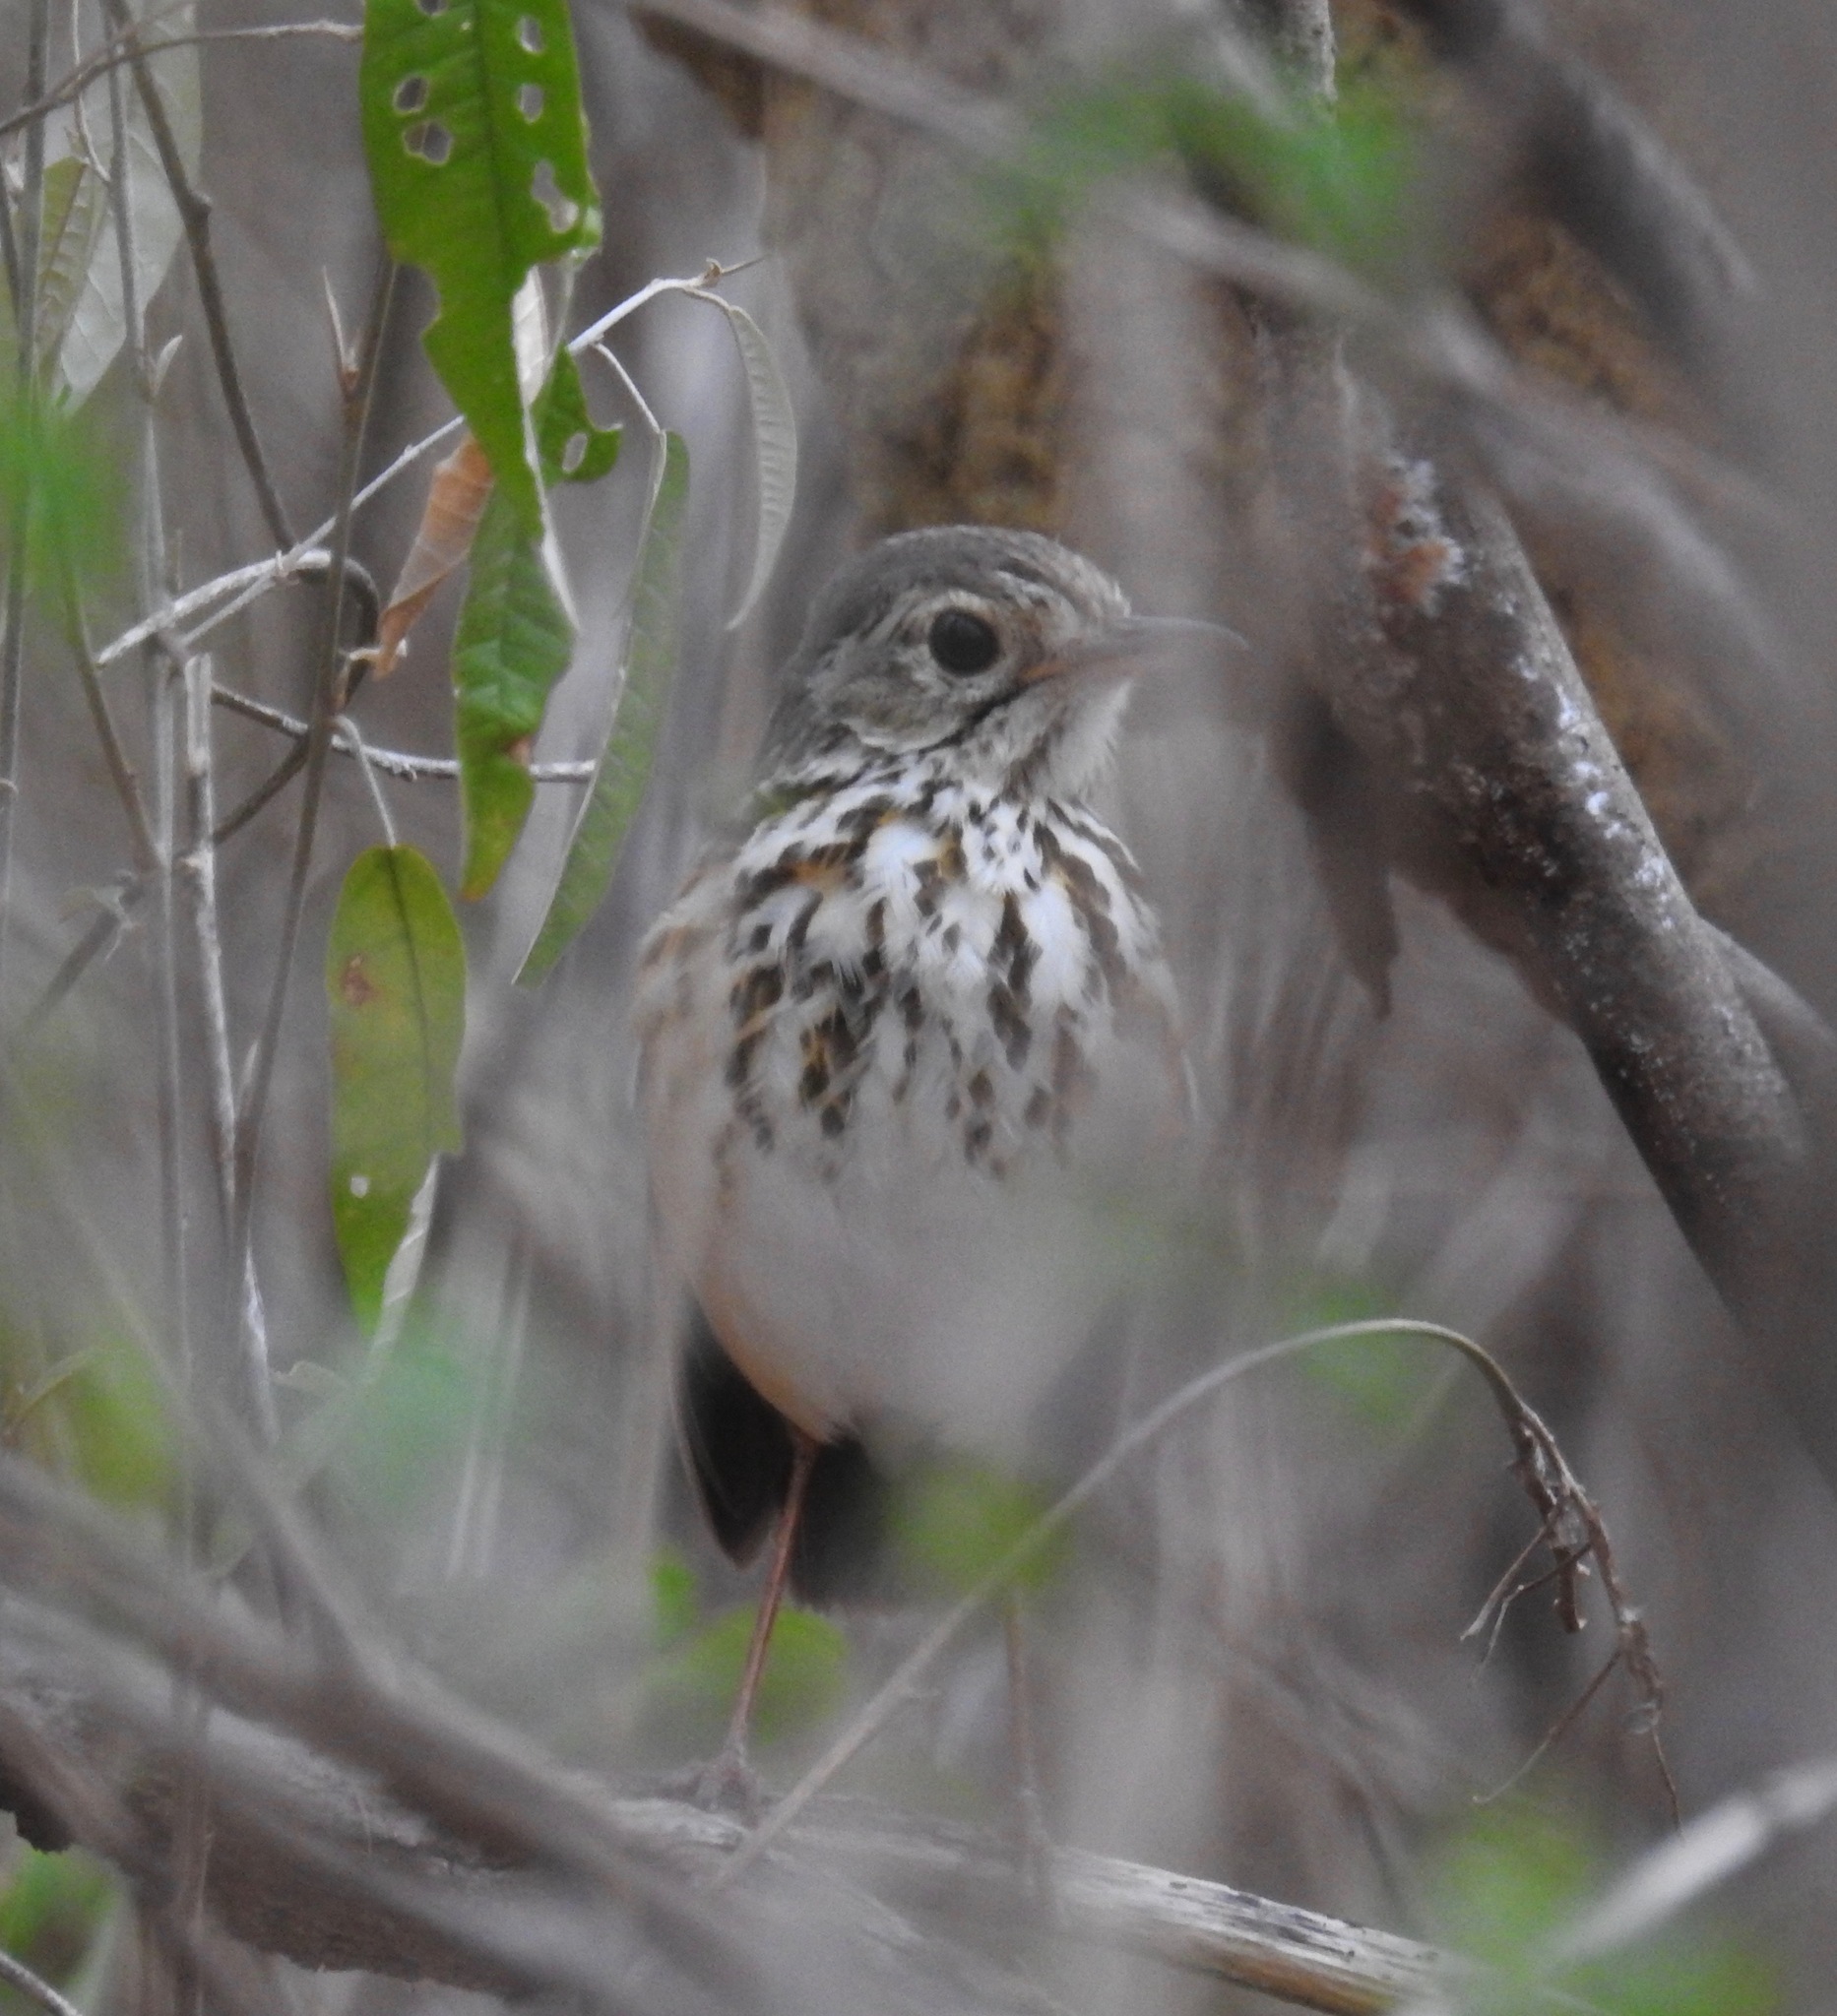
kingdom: Animalia
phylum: Chordata
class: Aves
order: Passeriformes
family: Grallariidae
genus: Hylopezus
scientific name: Hylopezus ochroleucus
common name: White-browed antpitta
